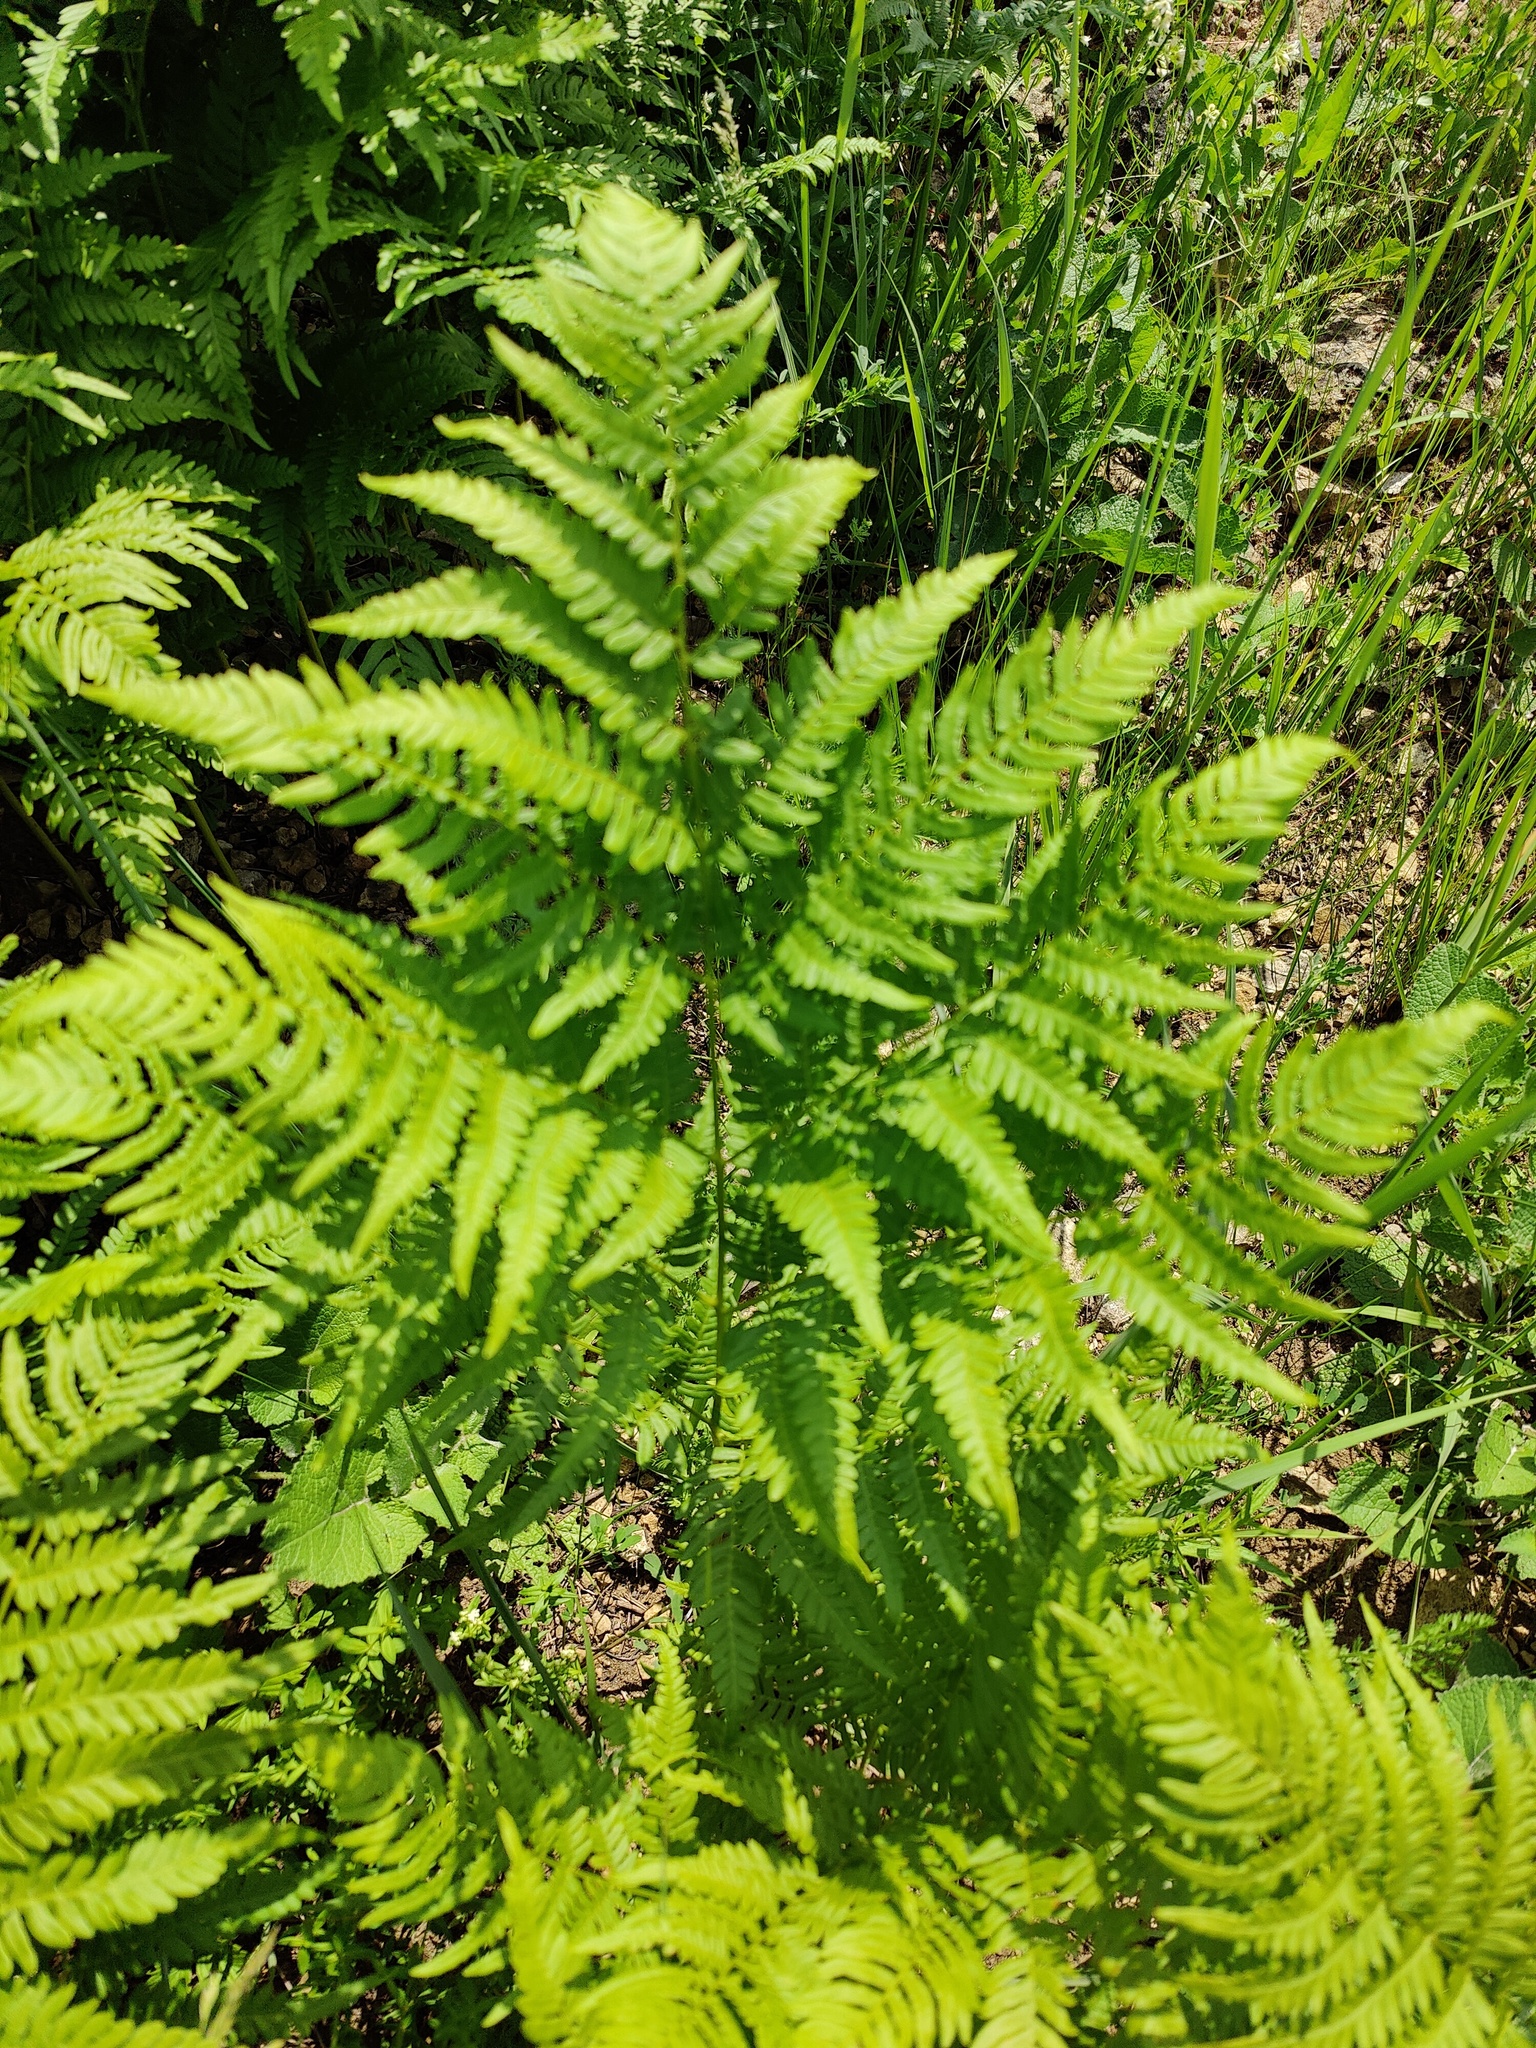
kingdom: Plantae
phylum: Tracheophyta
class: Polypodiopsida
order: Polypodiales
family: Dennstaedtiaceae
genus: Pteridium
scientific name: Pteridium aquilinum
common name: Bracken
